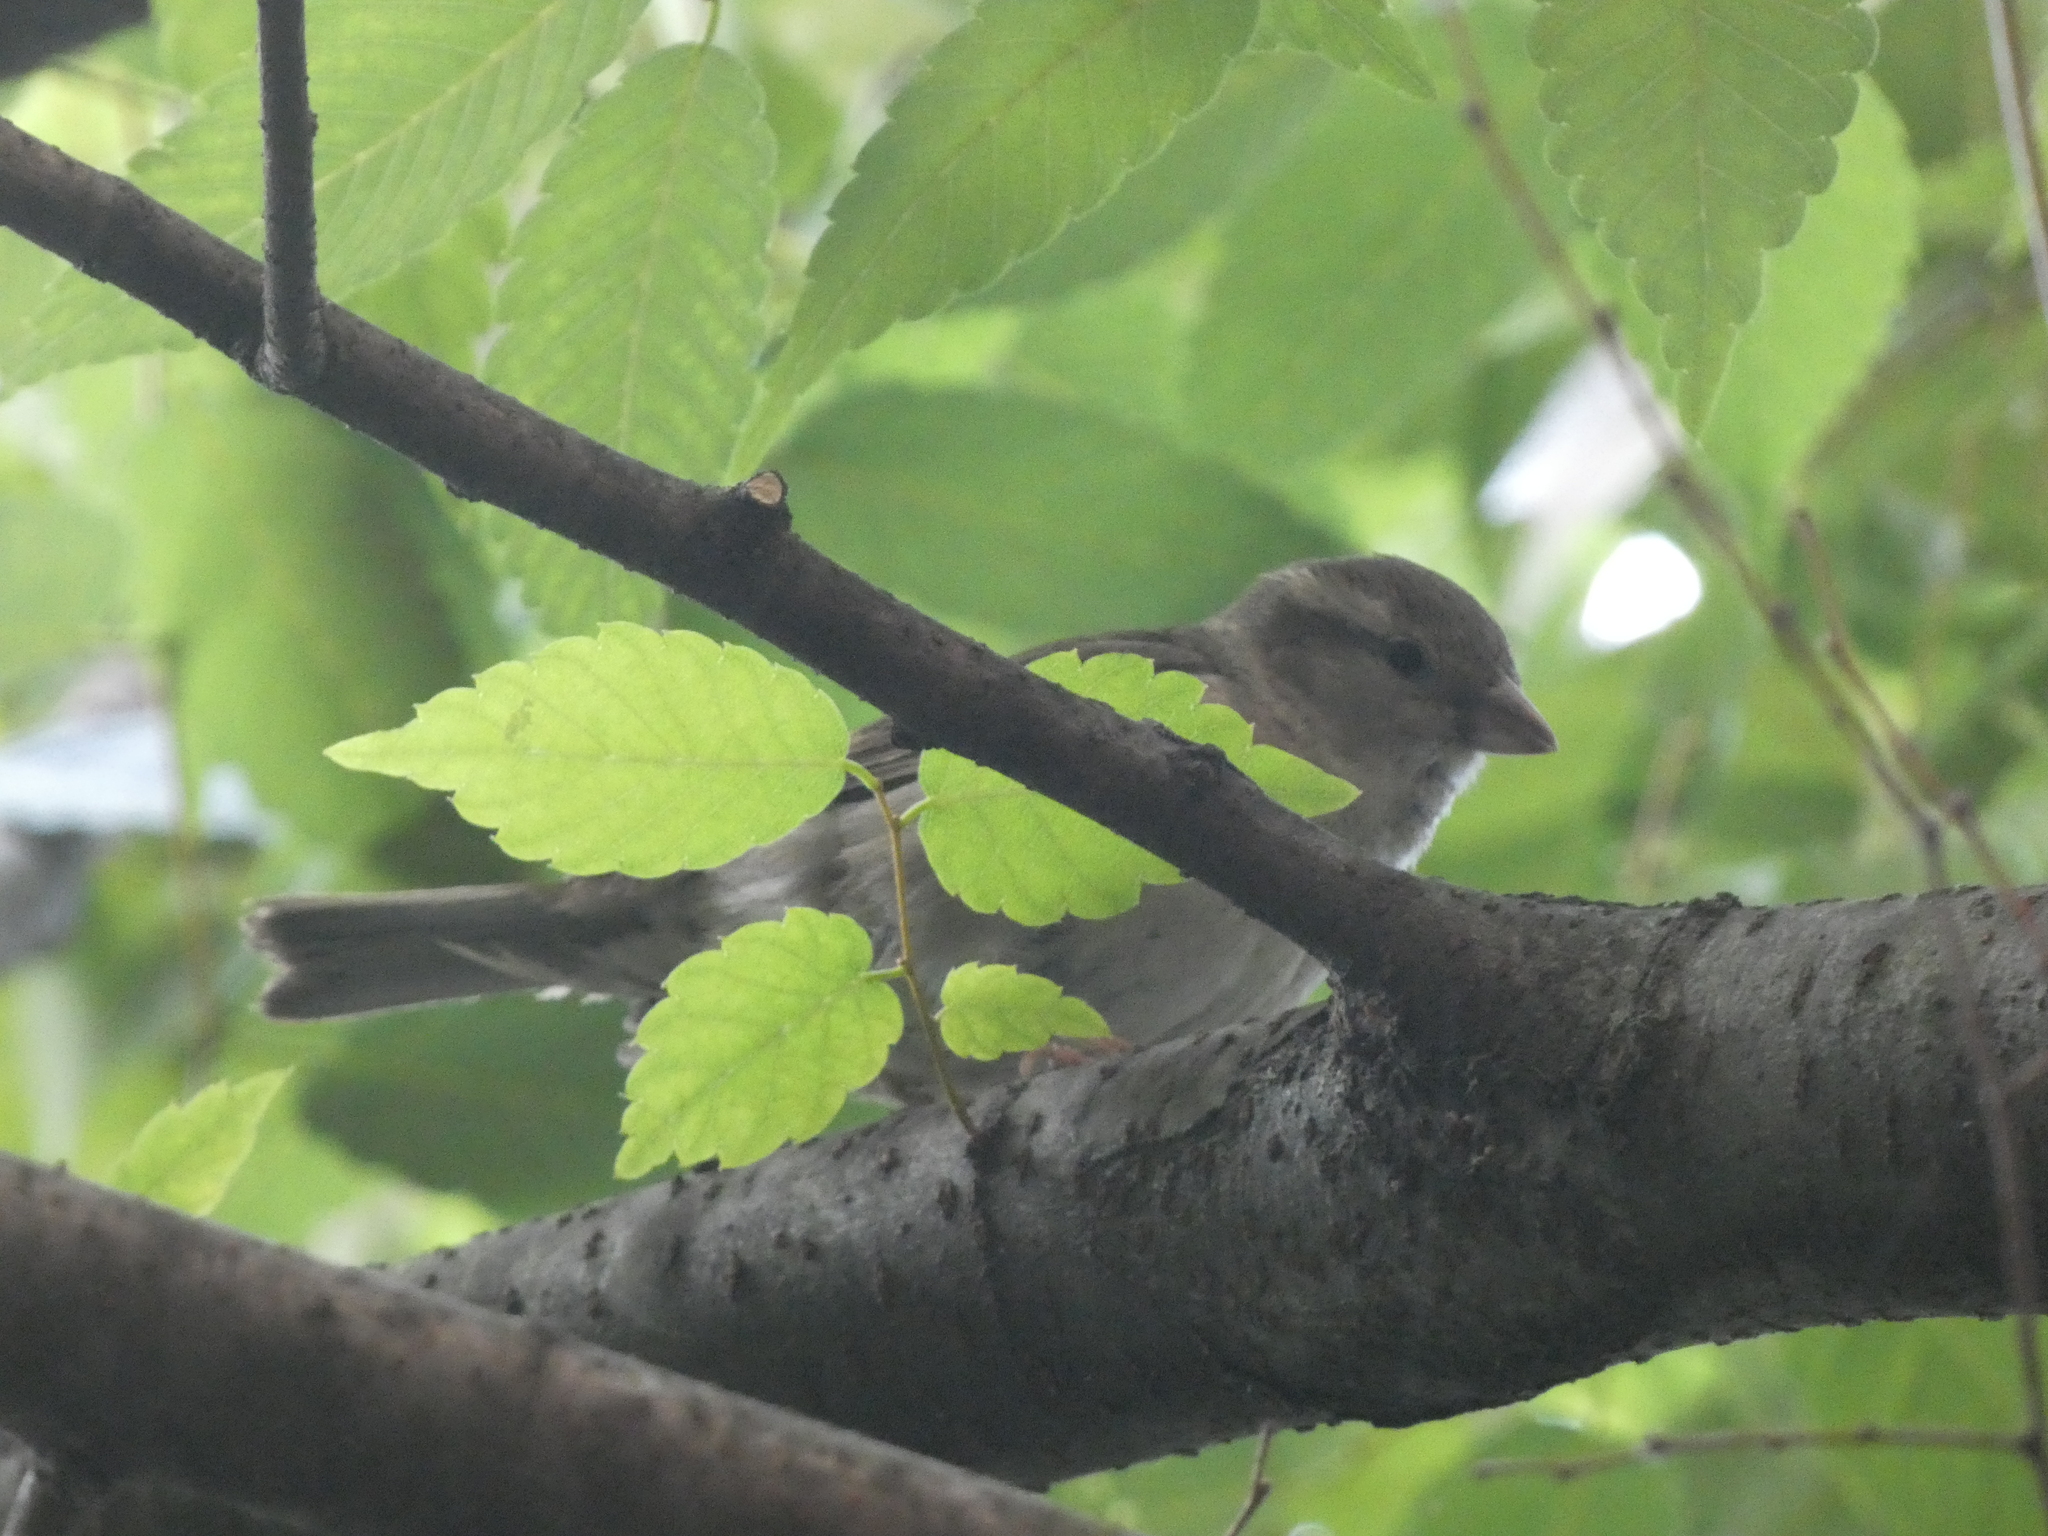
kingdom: Animalia
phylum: Chordata
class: Aves
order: Passeriformes
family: Passeridae
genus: Passer
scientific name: Passer domesticus
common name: House sparrow
